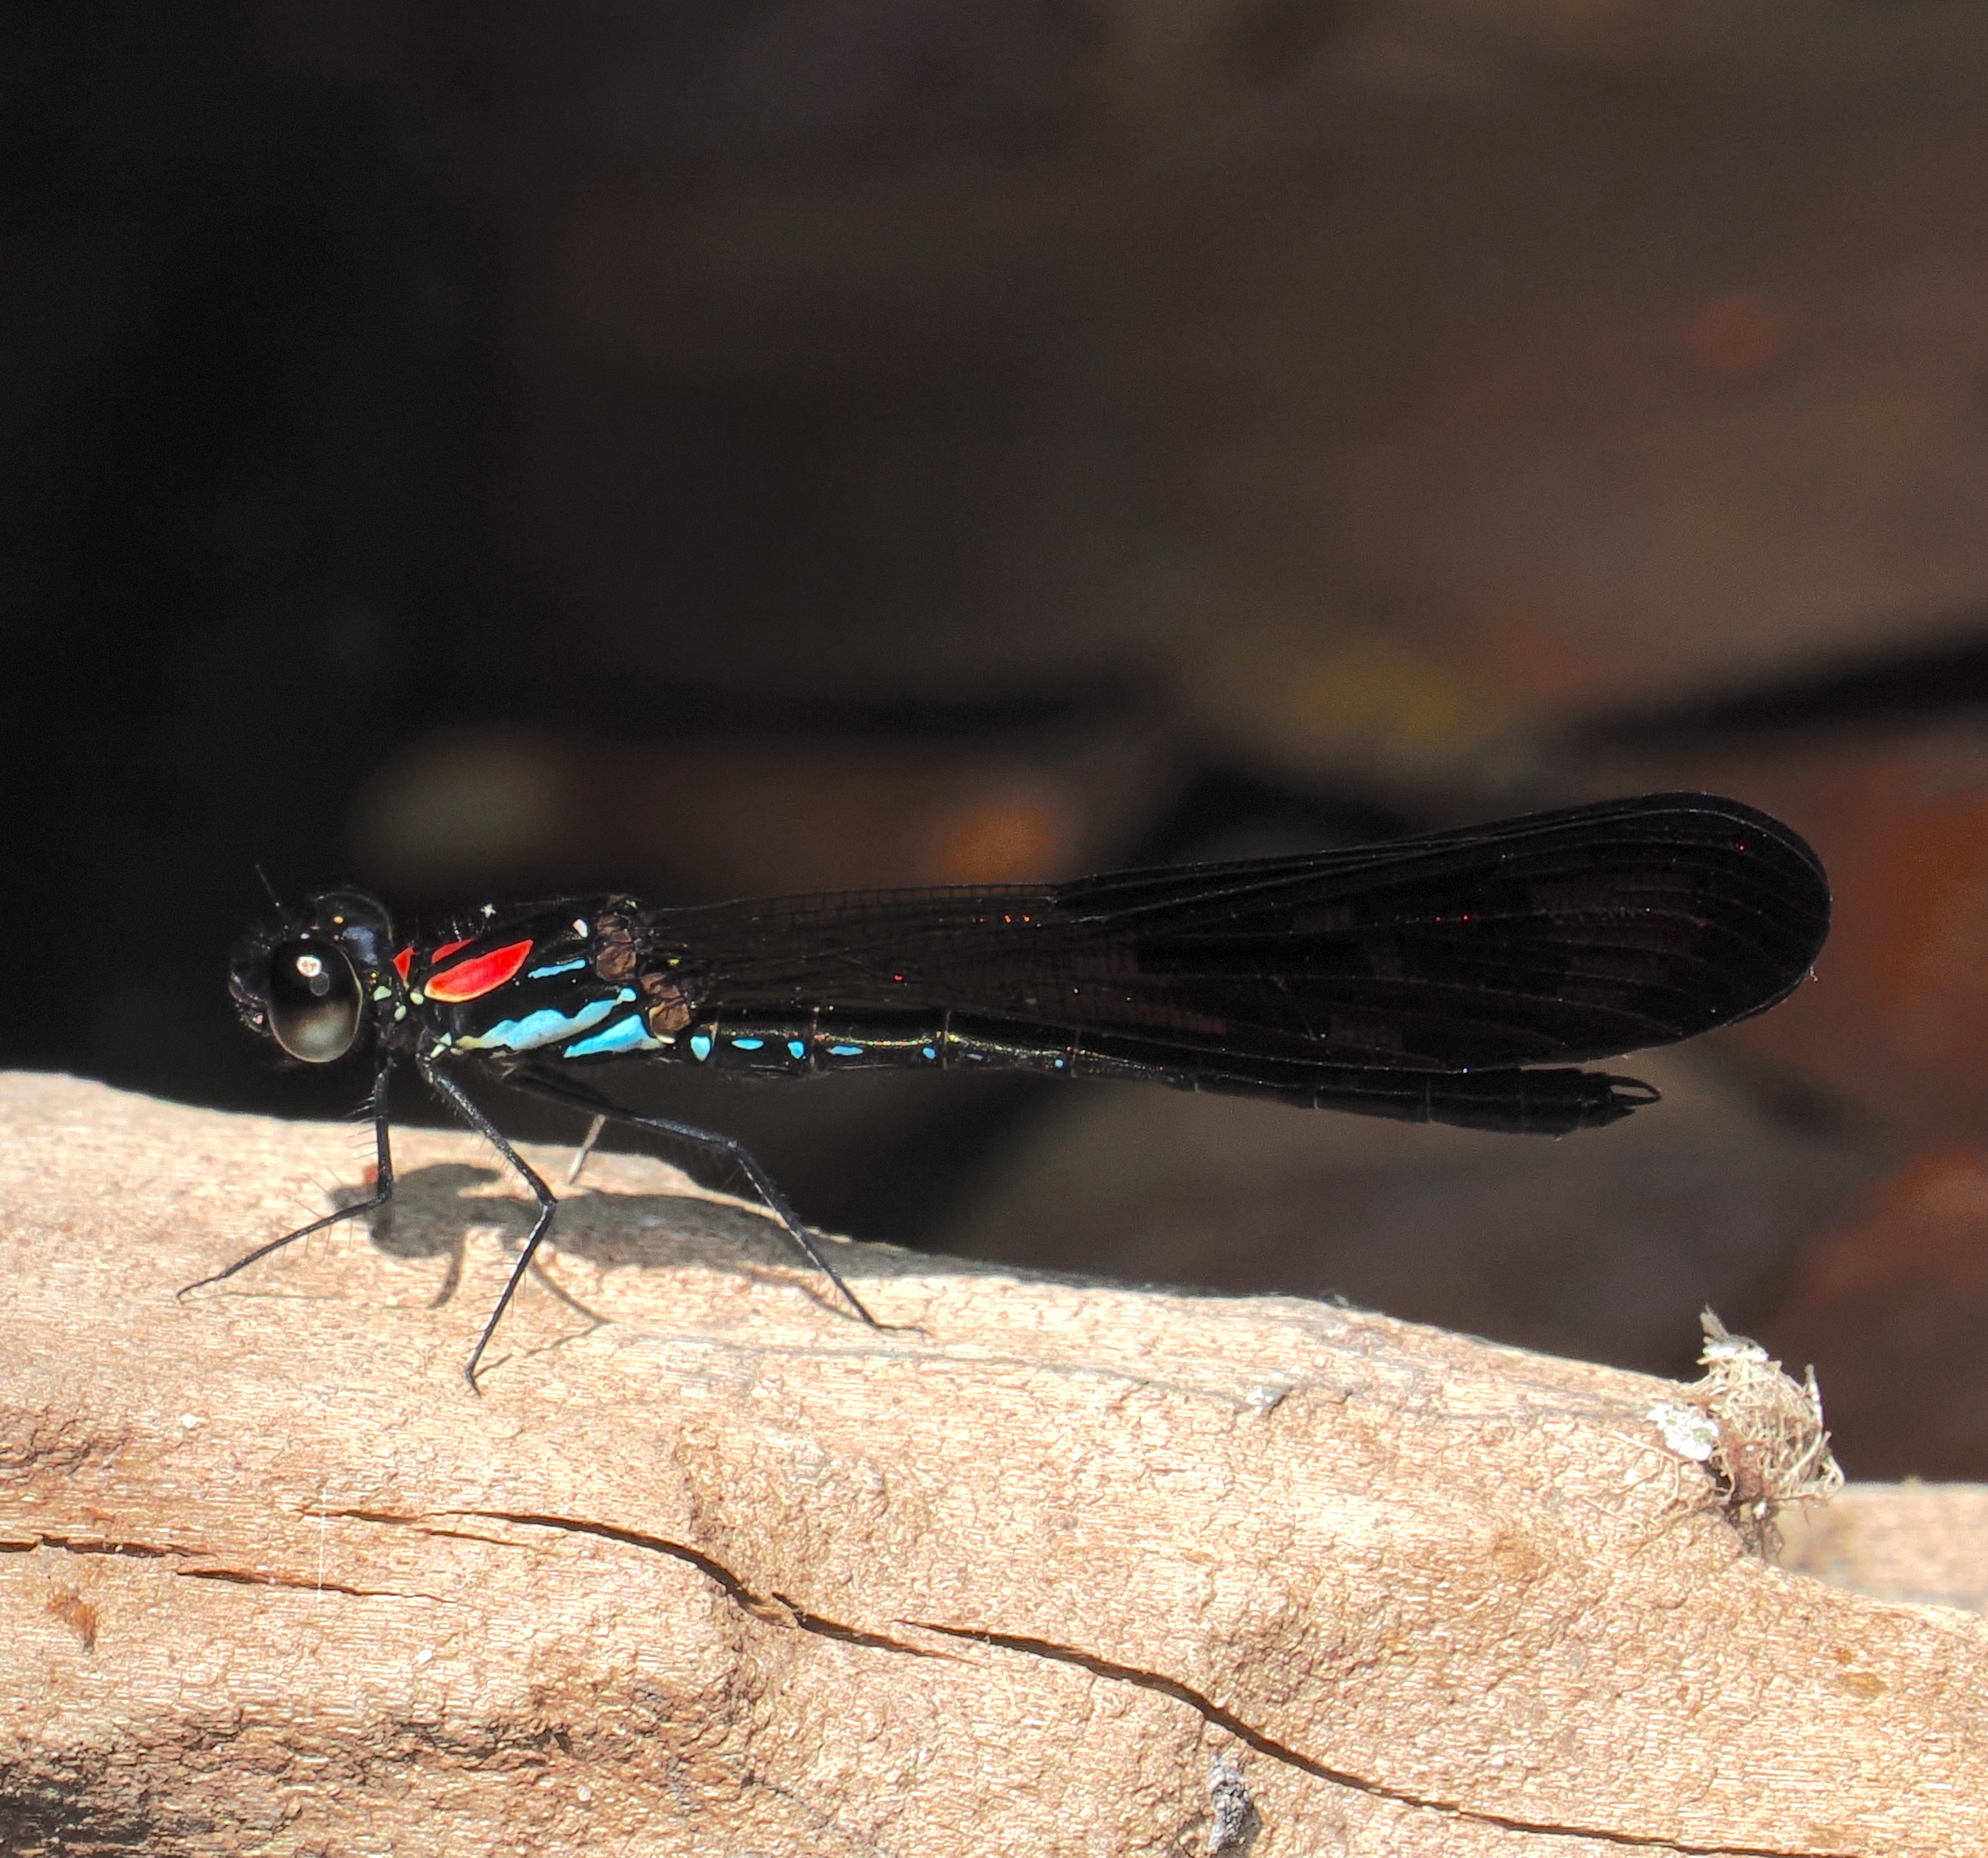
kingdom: Animalia
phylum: Arthropoda
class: Insecta
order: Odonata
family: Chlorocyphidae
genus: Heliocypha
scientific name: Heliocypha fenestrata
